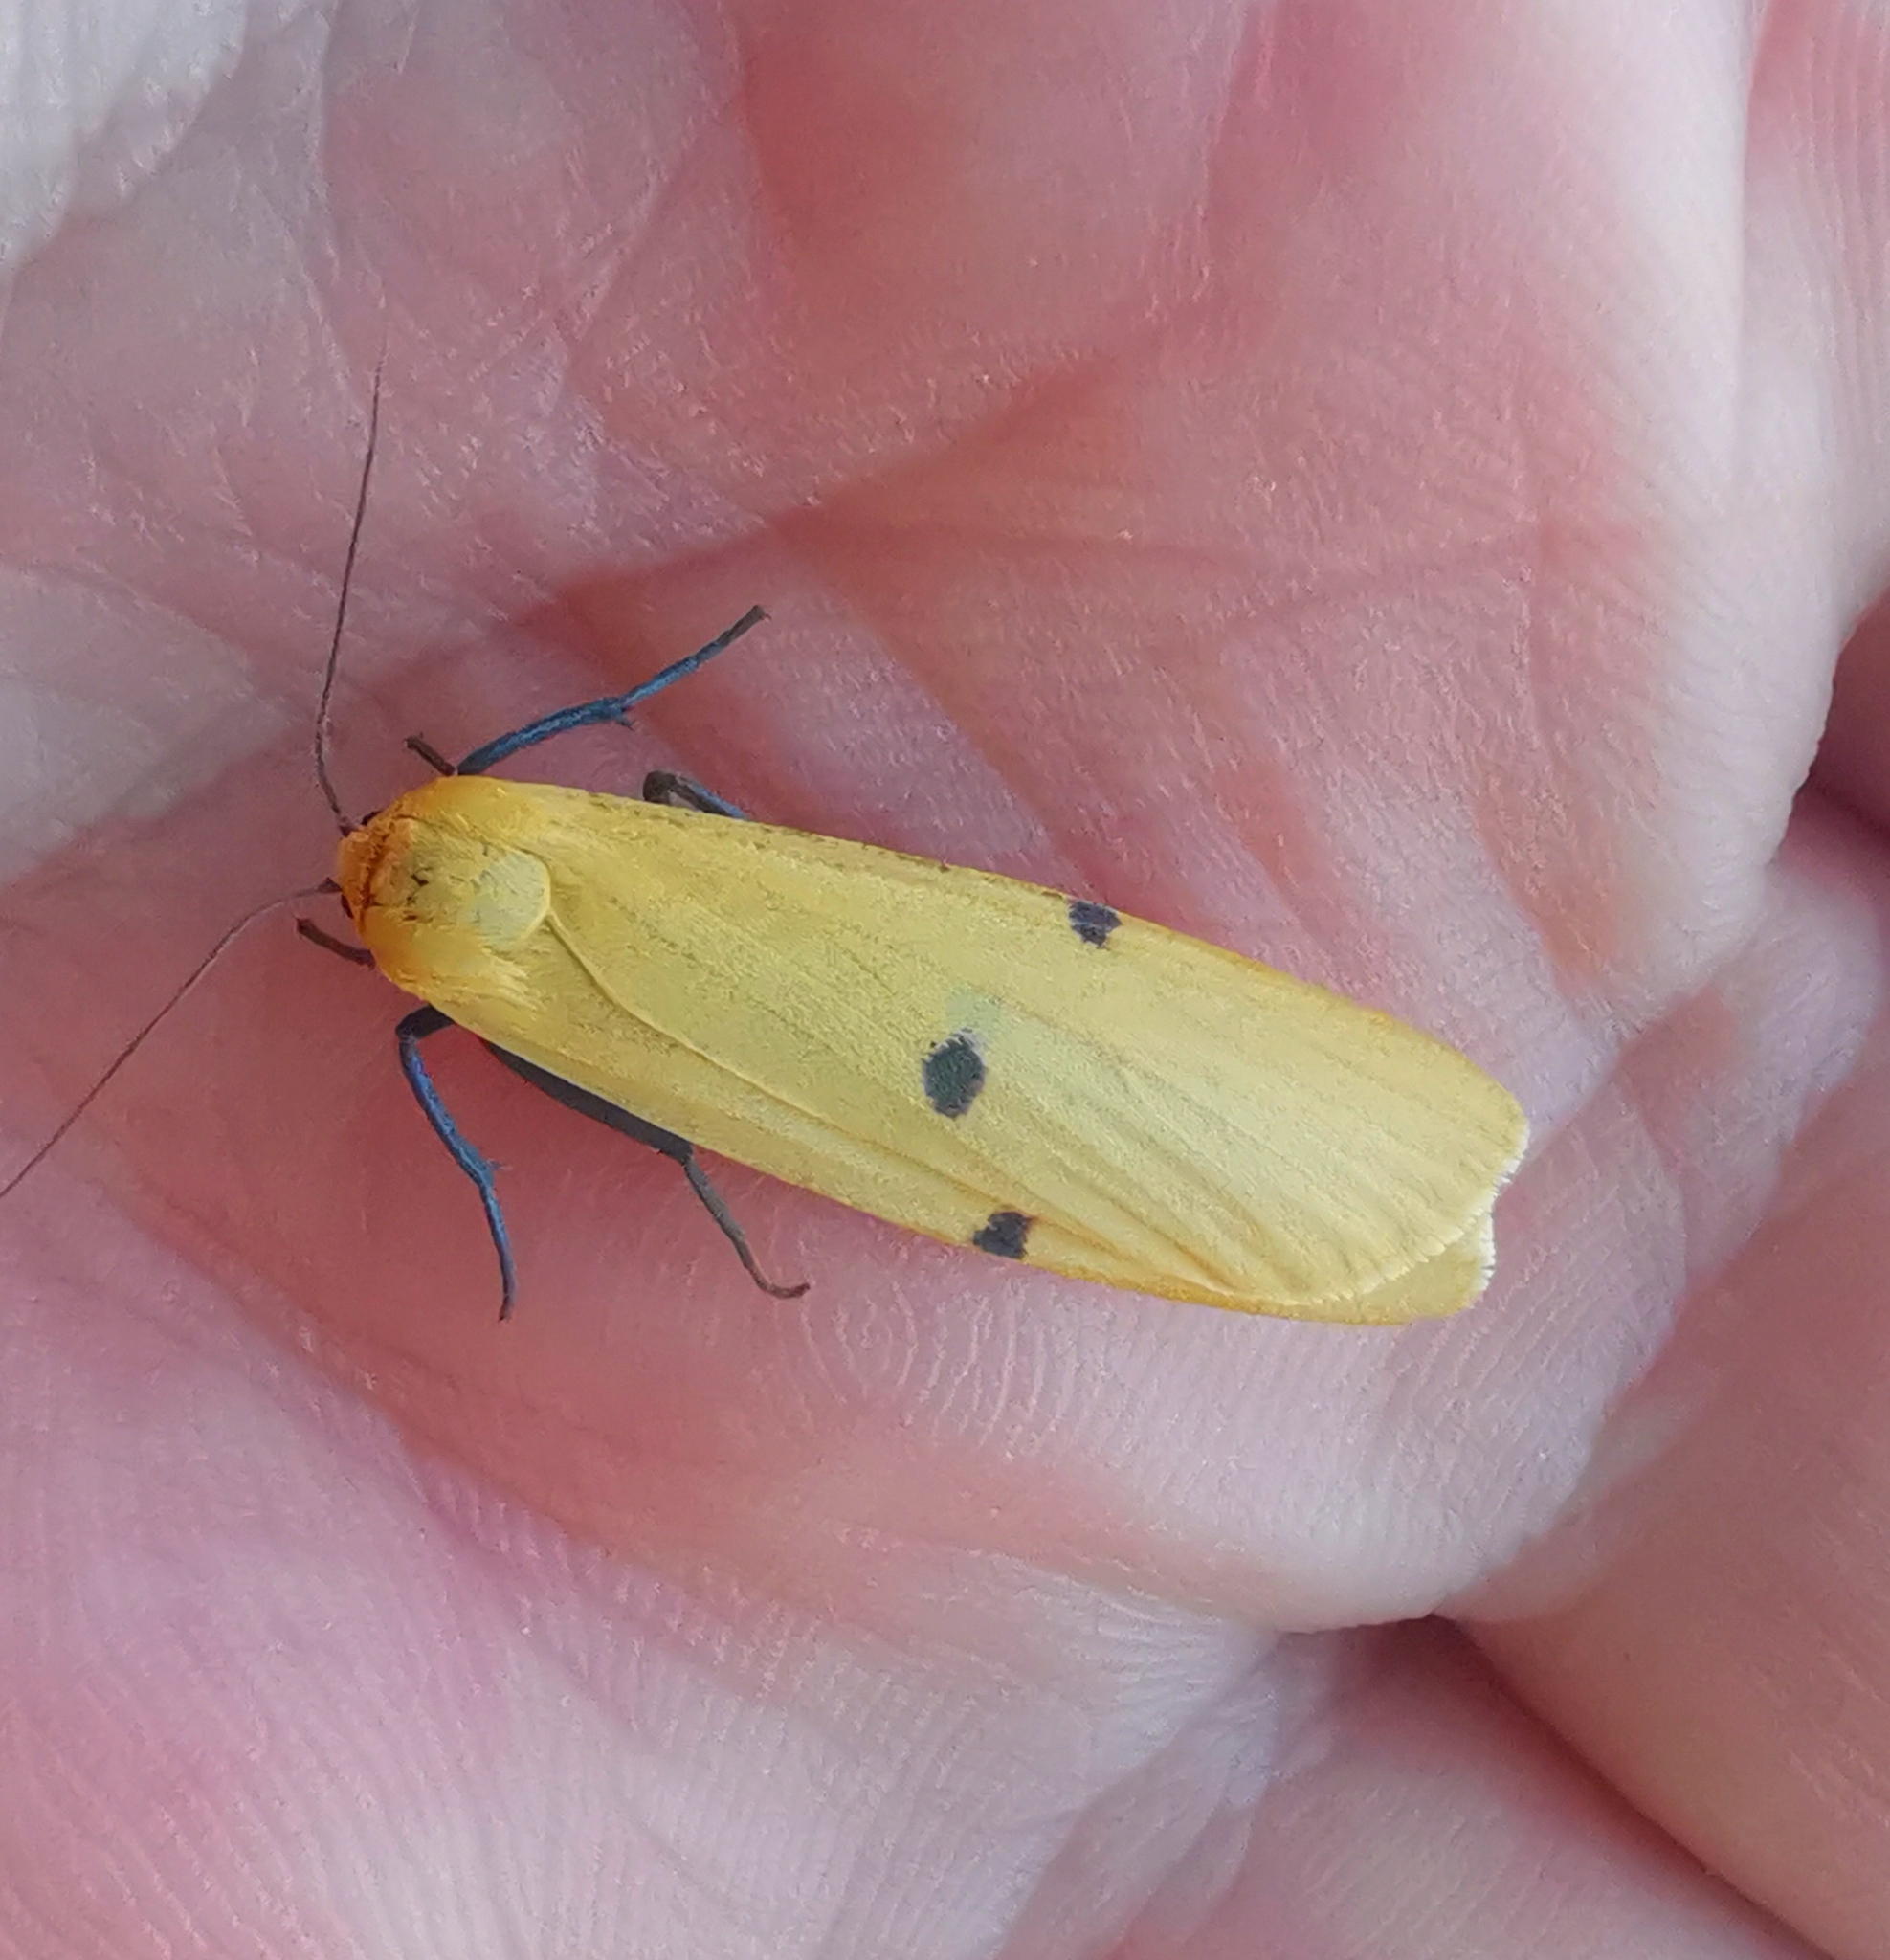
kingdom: Animalia
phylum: Arthropoda
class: Insecta
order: Lepidoptera
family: Erebidae
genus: Lithosia
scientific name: Lithosia quadra
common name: Four-spotted footman
